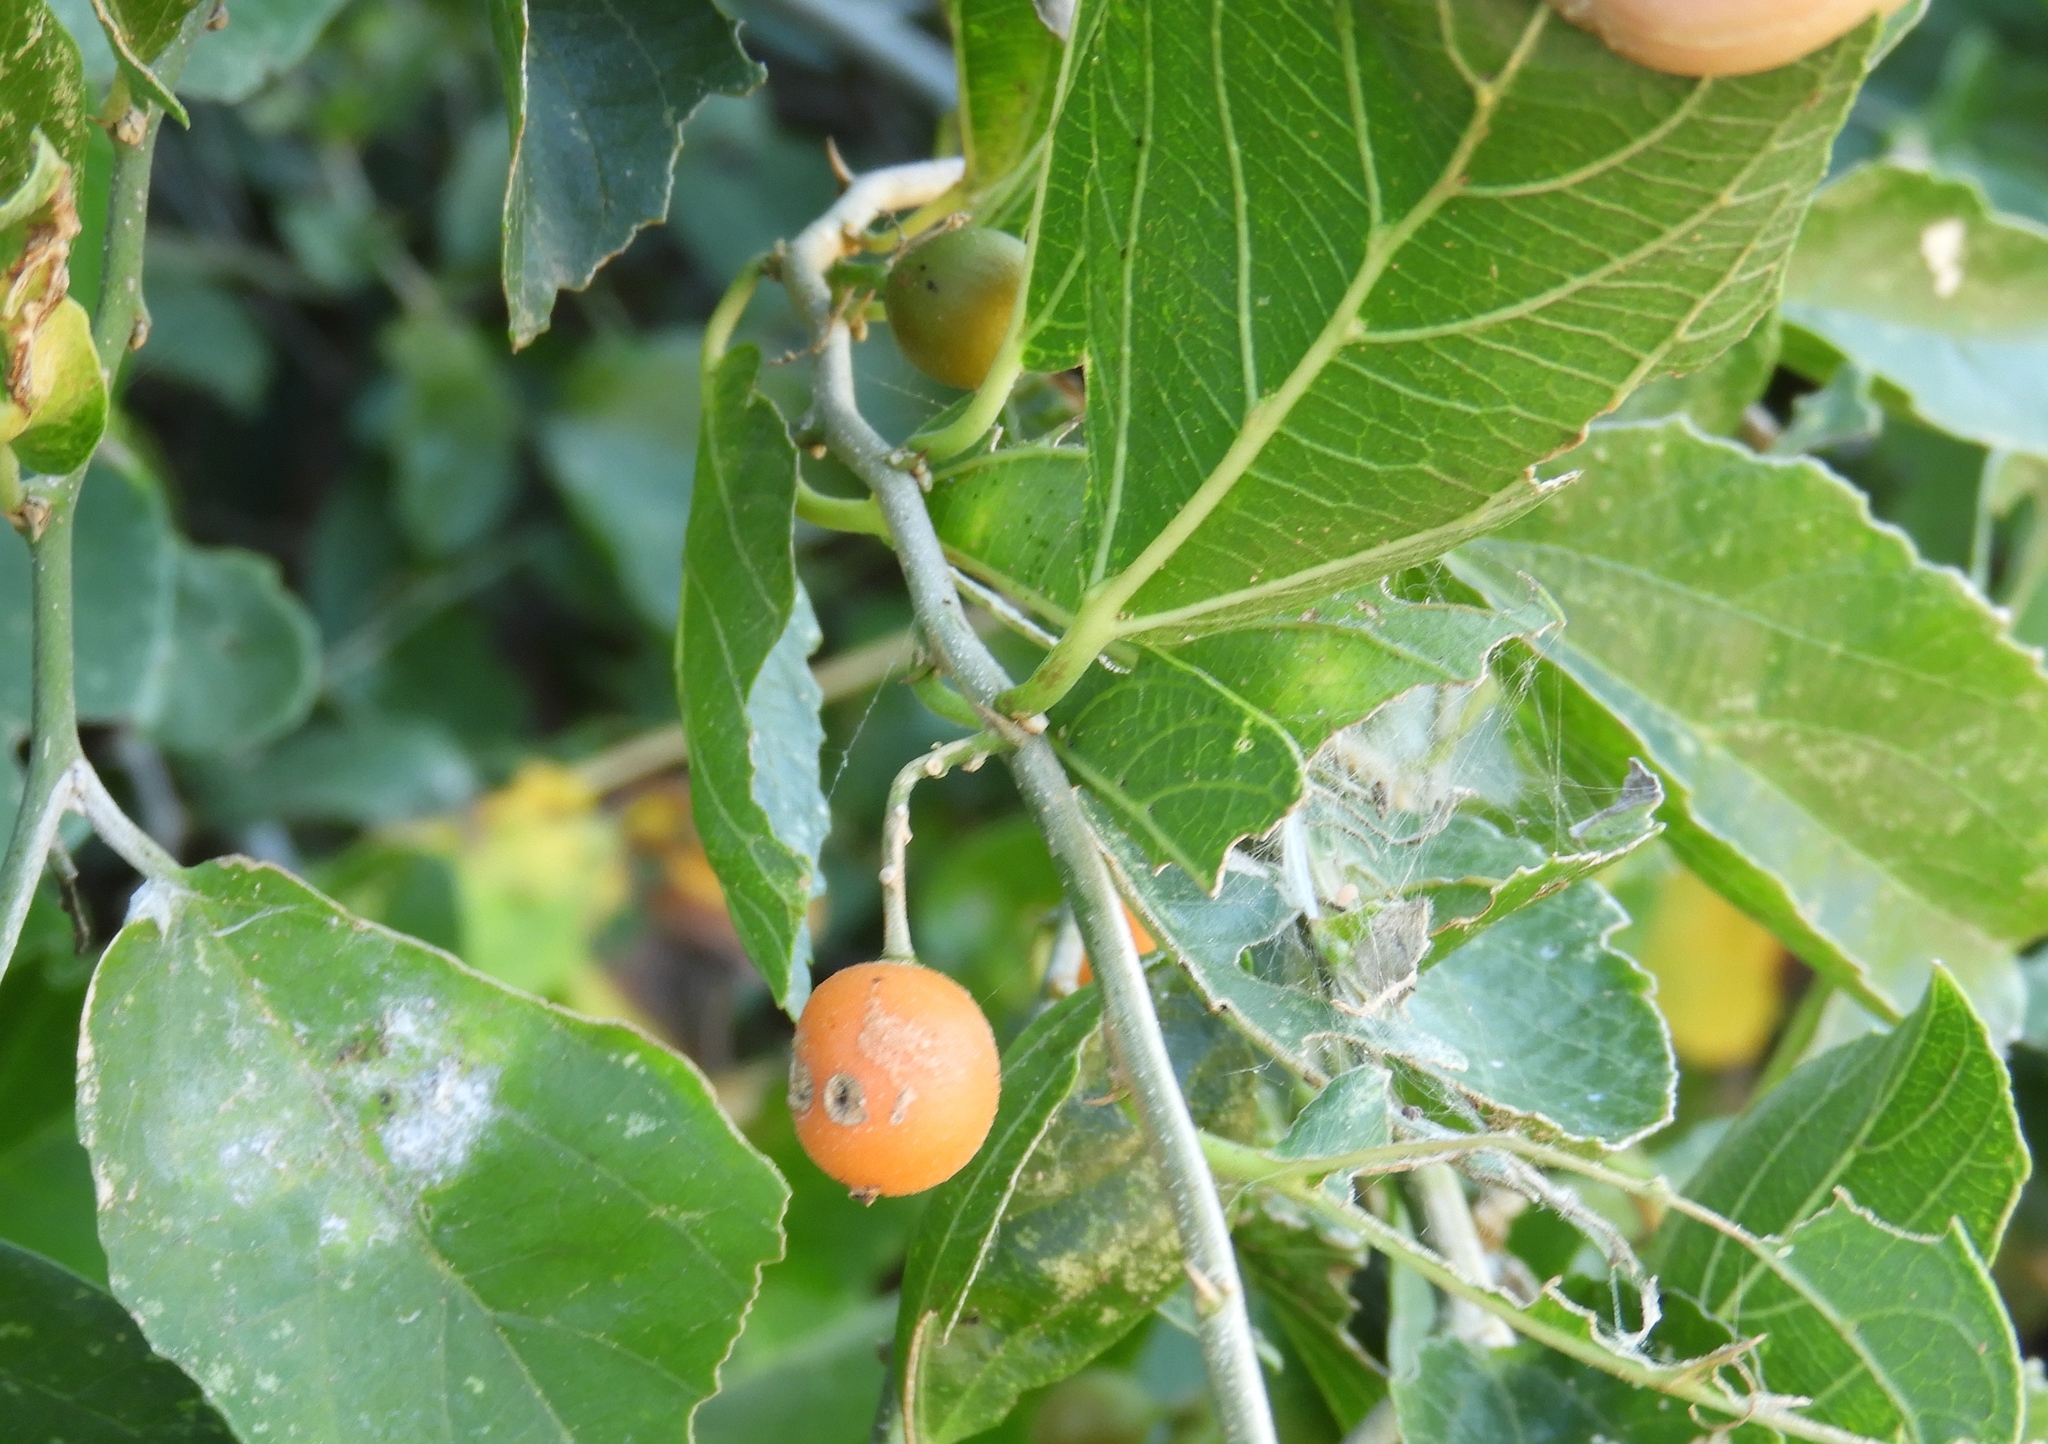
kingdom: Plantae
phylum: Tracheophyta
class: Magnoliopsida
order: Rosales
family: Cannabaceae
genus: Celtis
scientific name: Celtis iguanaea
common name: Iguana hackberry
